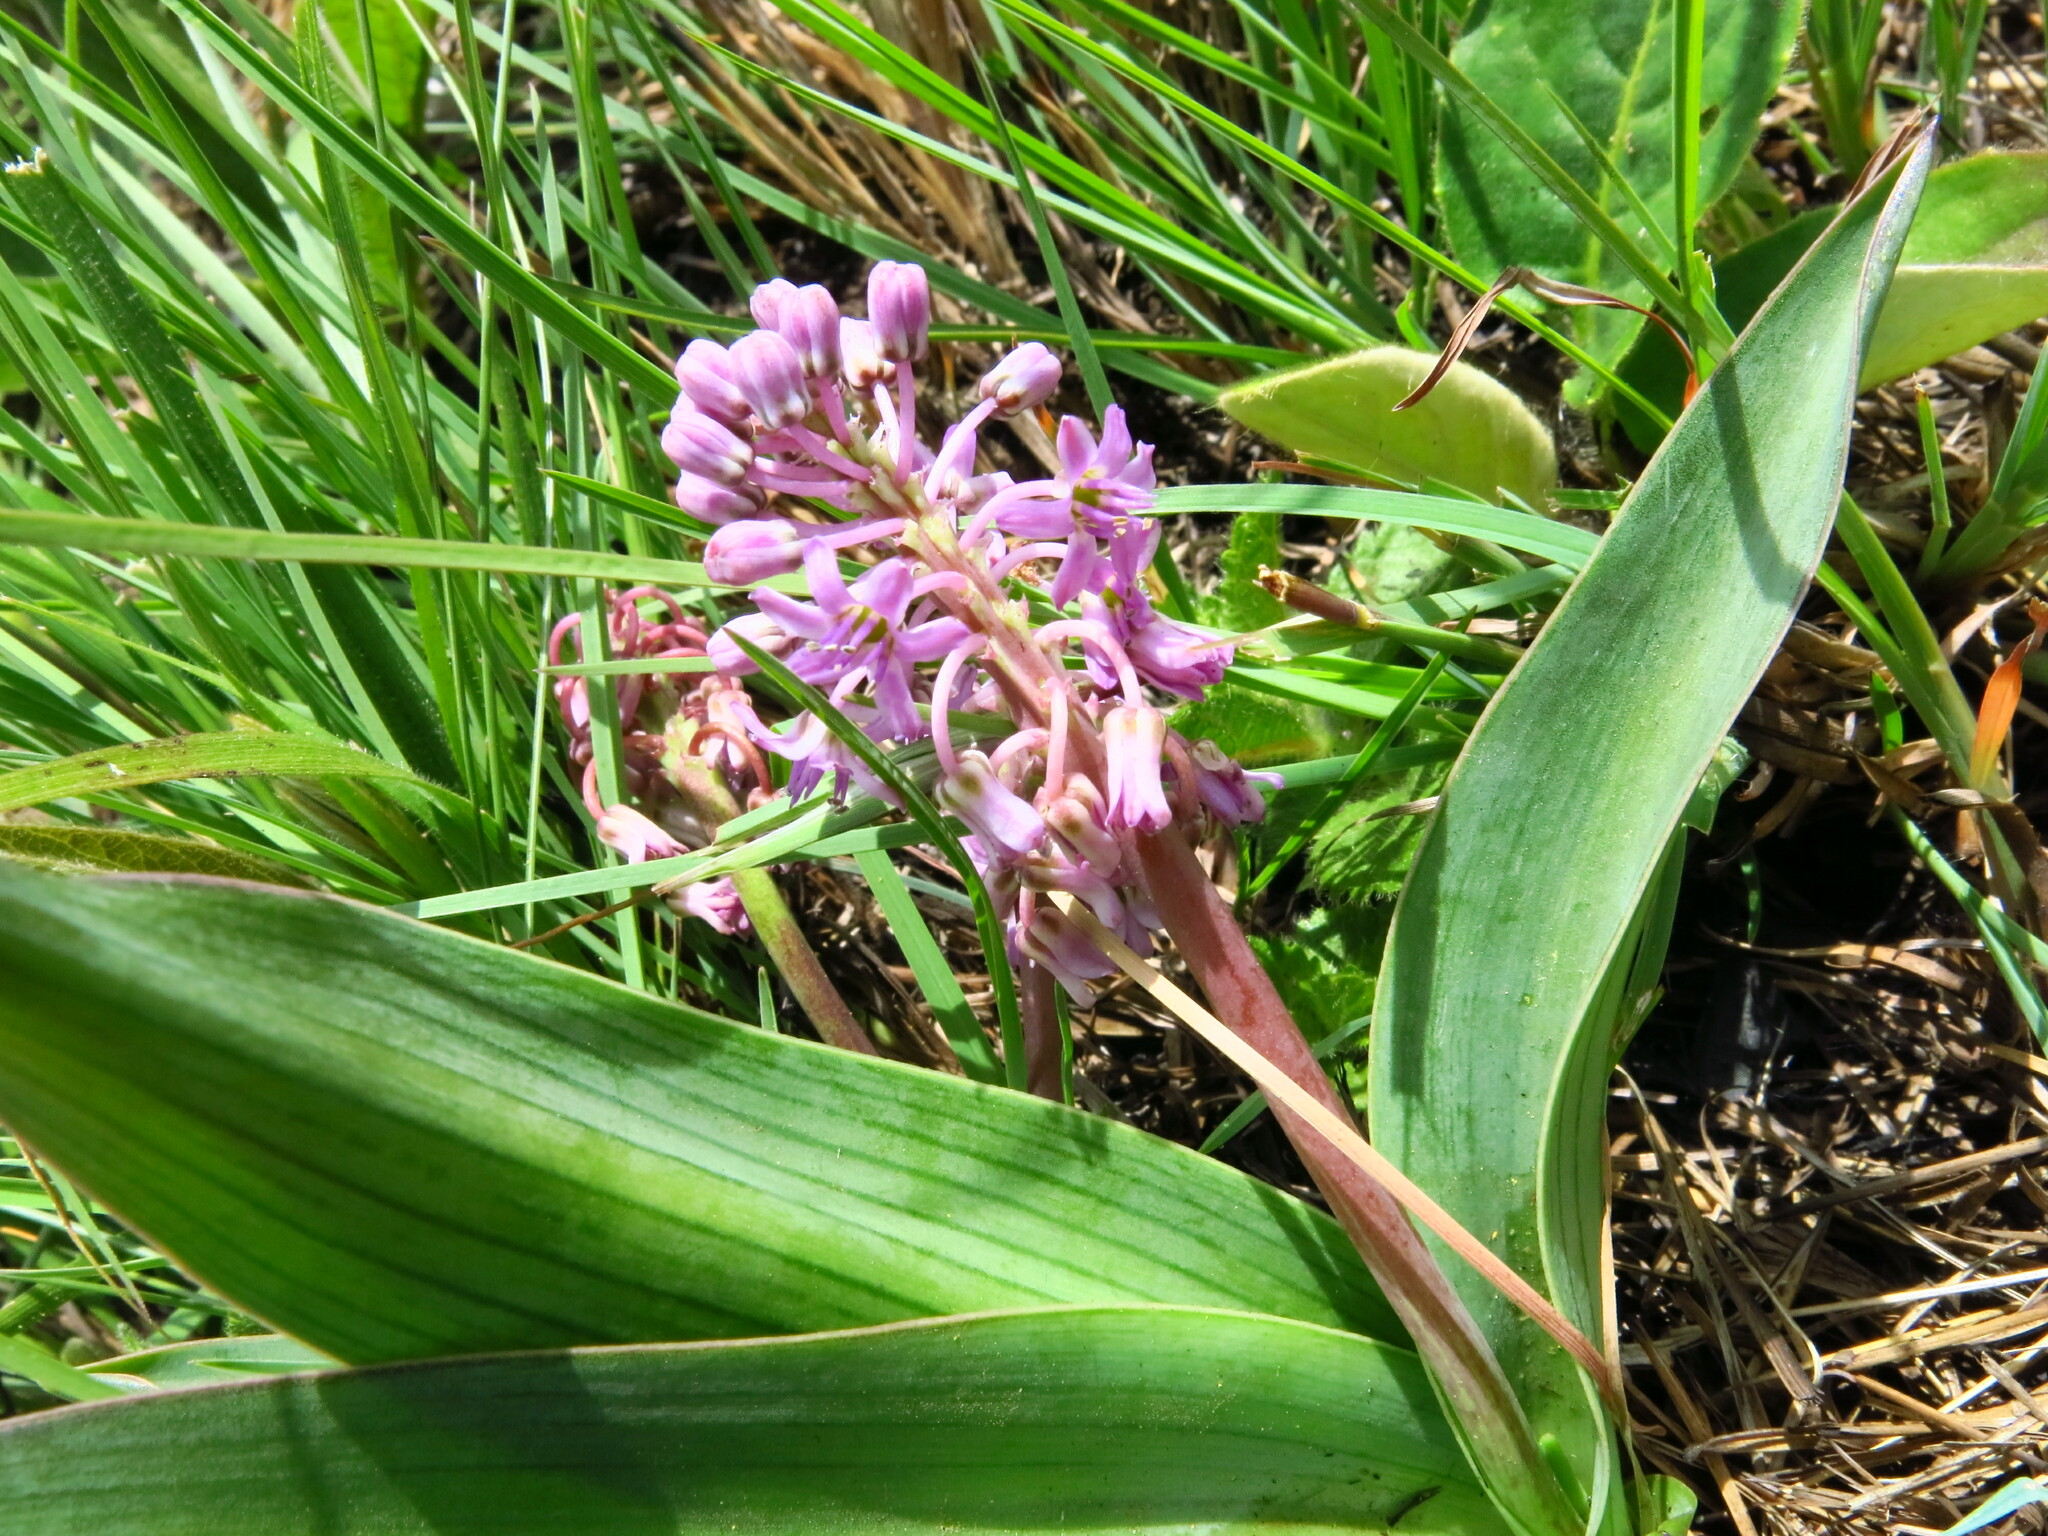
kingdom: Plantae
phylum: Tracheophyta
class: Liliopsida
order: Asparagales
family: Asparagaceae
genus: Ledebouria
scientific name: Ledebouria cooperi
